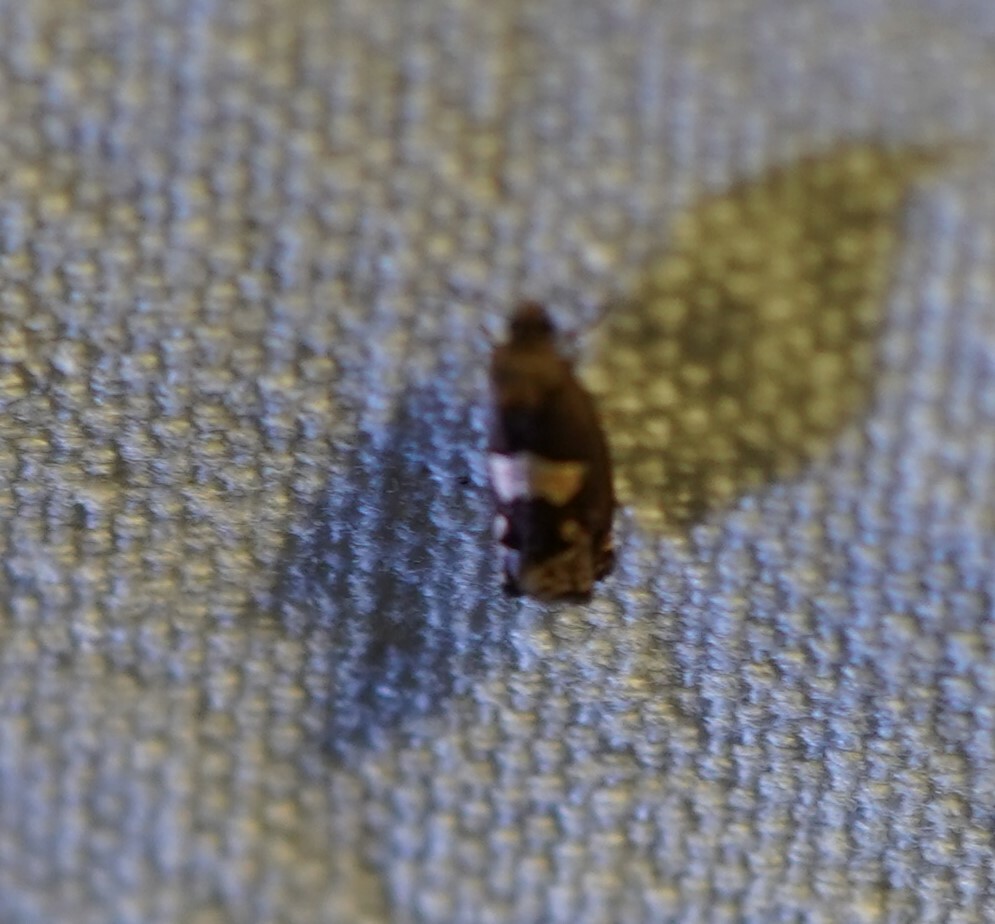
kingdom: Animalia
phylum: Arthropoda
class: Insecta
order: Lepidoptera
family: Tortricidae
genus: Epiblema
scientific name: Epiblema otiosana
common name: Bidens borer moth
